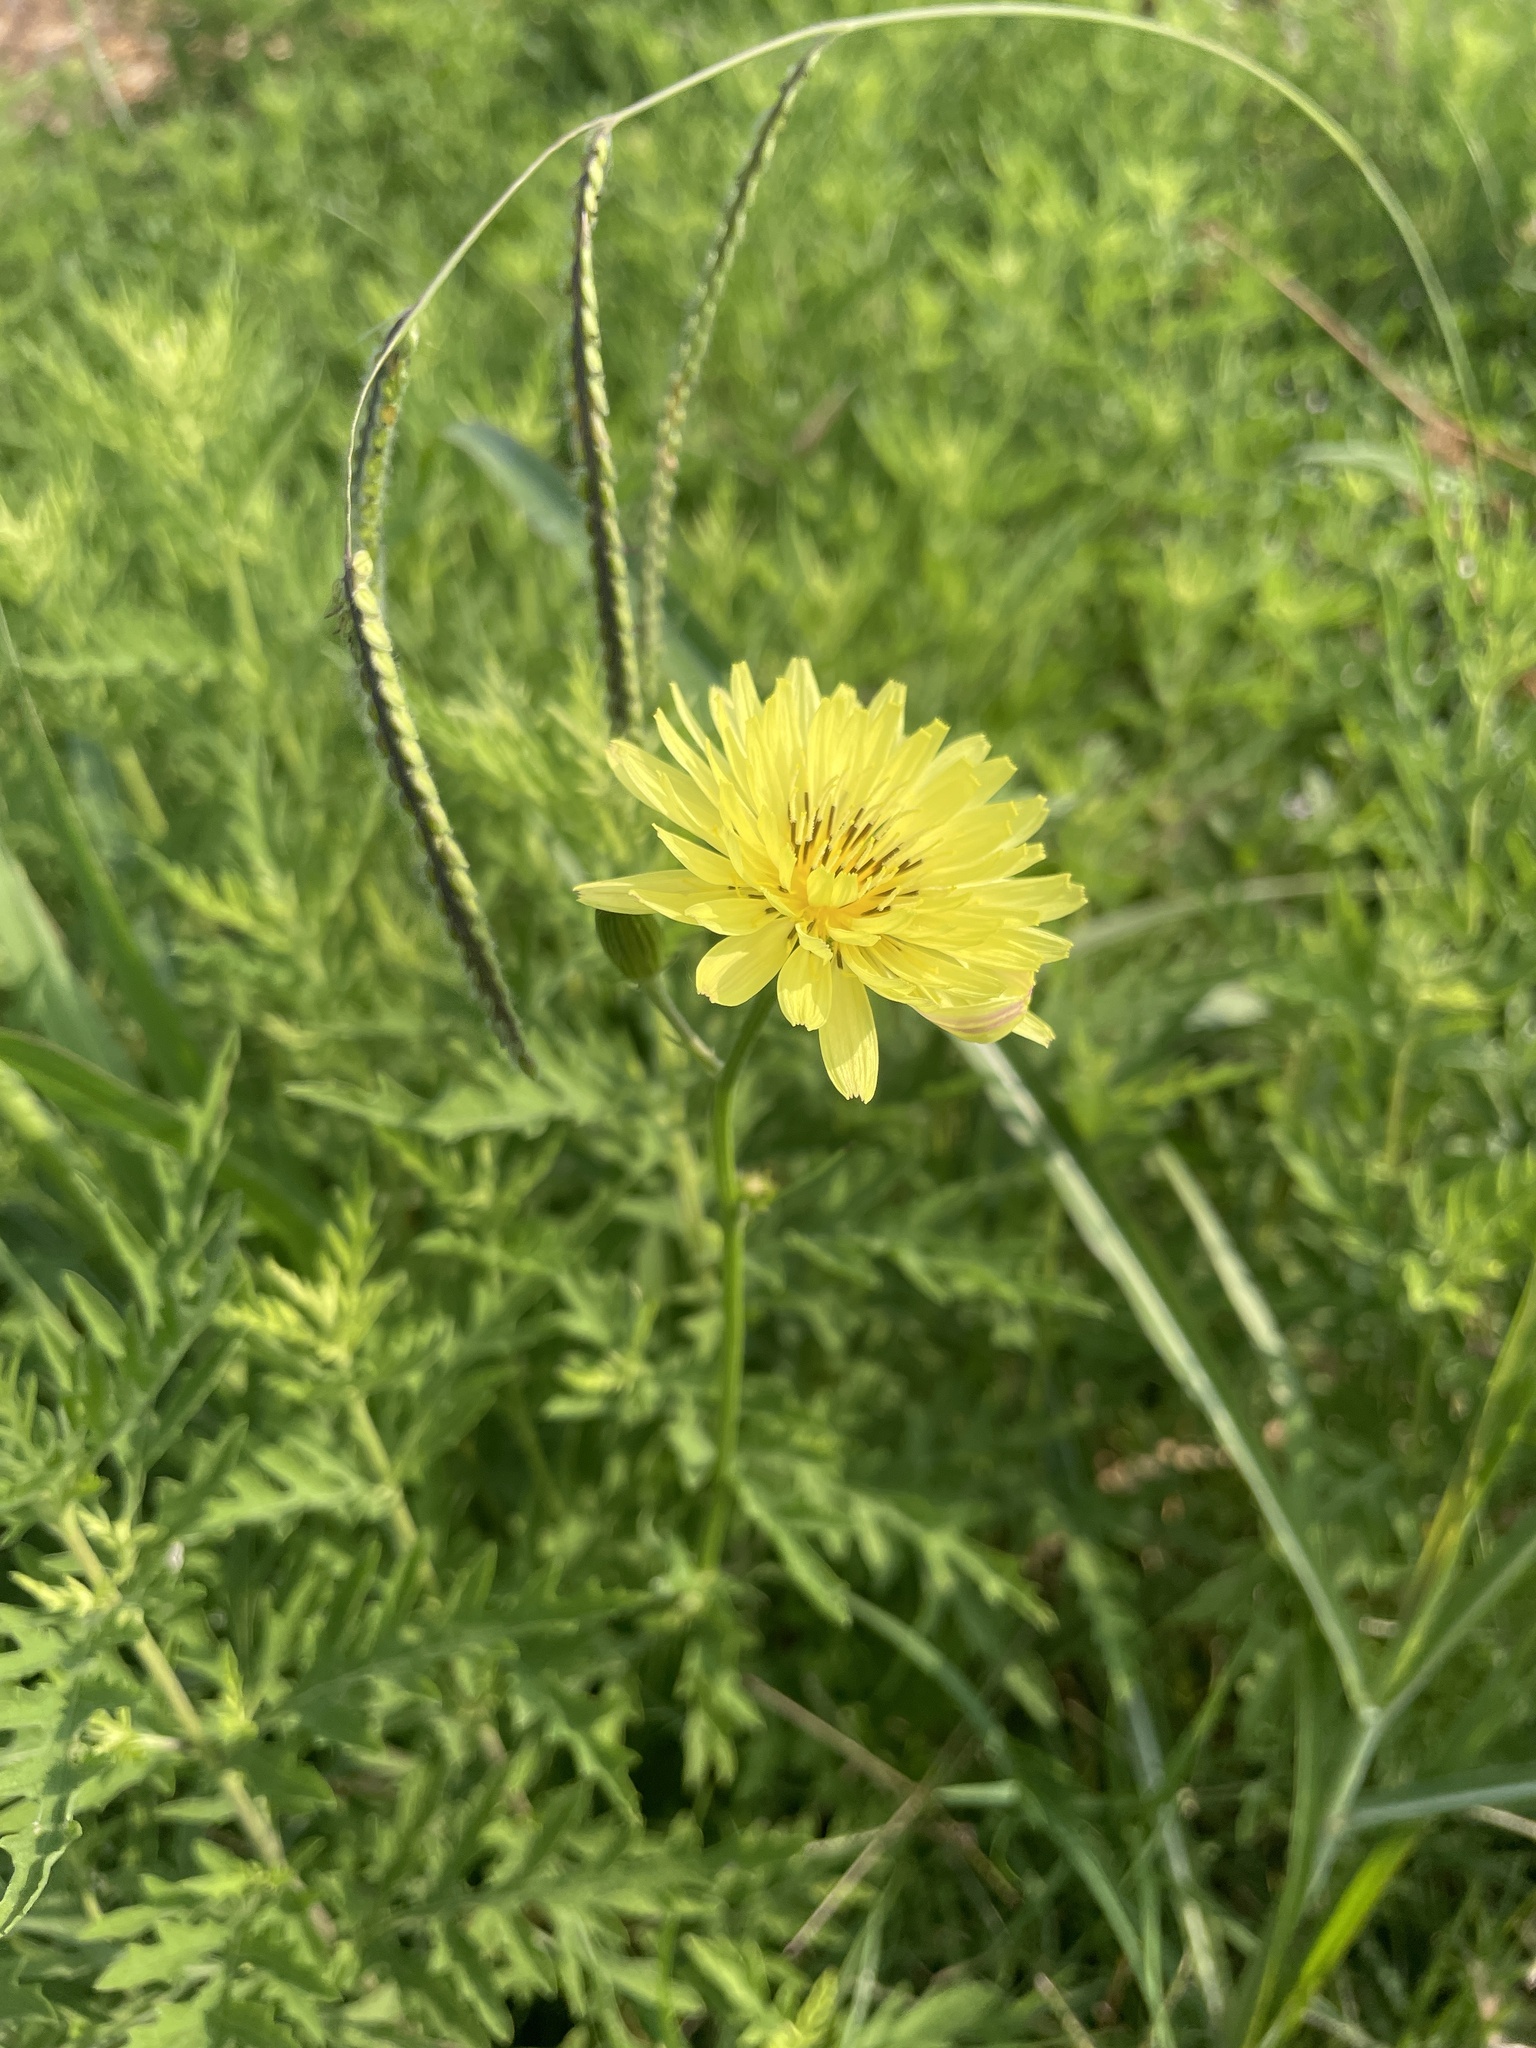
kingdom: Plantae
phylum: Tracheophyta
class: Magnoliopsida
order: Asterales
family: Asteraceae
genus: Pyrrhopappus
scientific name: Pyrrhopappus pauciflorus
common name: Texas false dandelion
